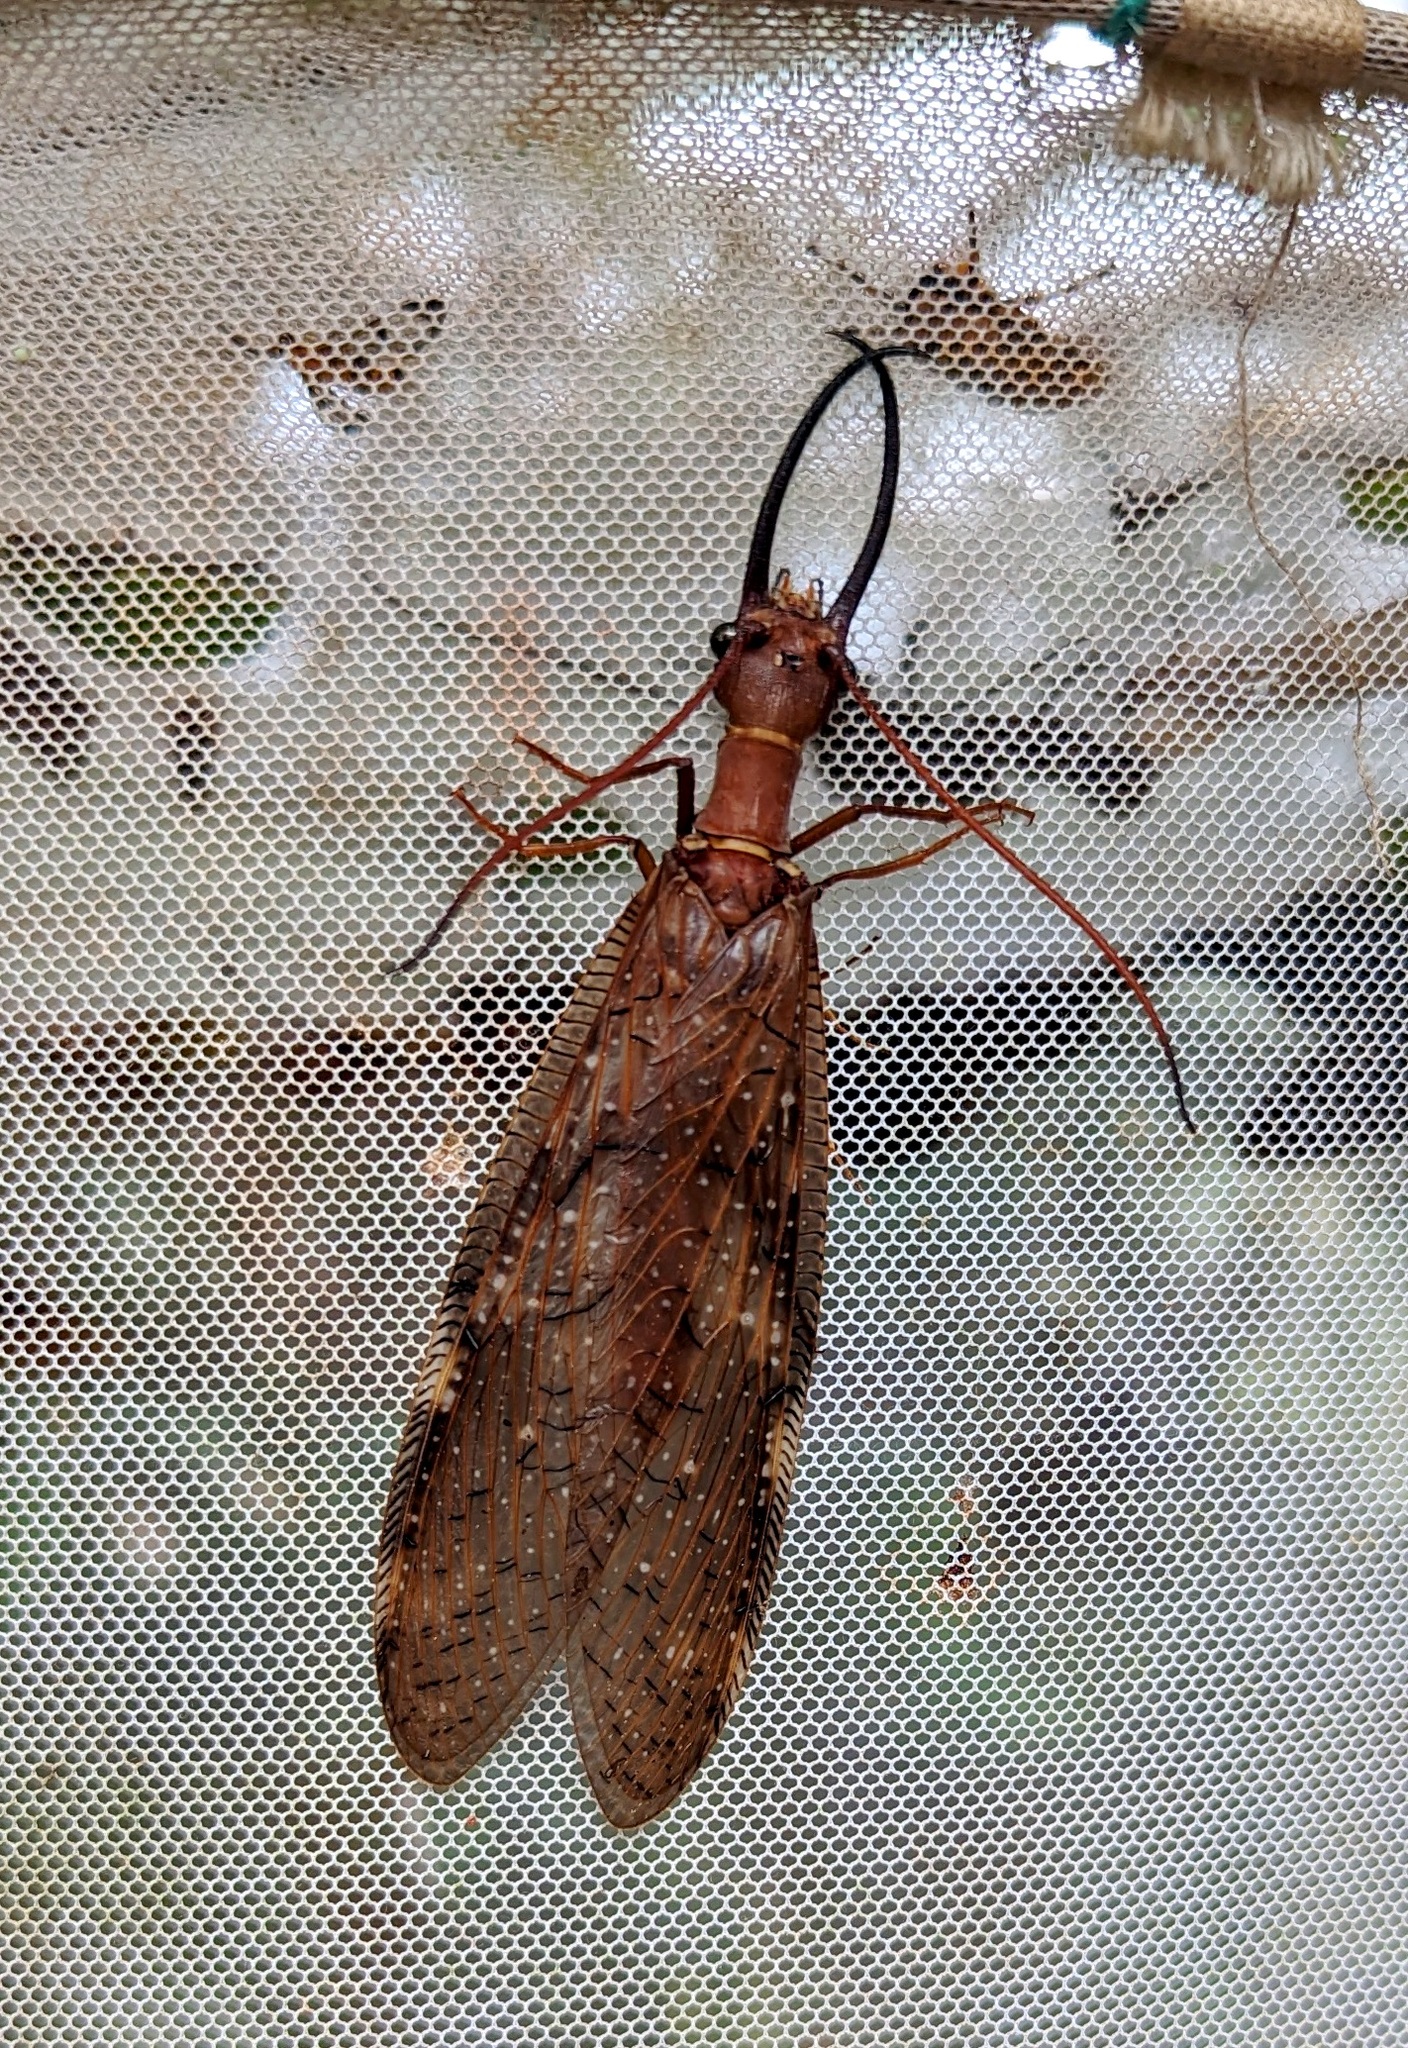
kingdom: Animalia
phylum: Arthropoda
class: Insecta
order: Megaloptera
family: Corydalidae
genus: Corydalus
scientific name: Corydalus armatus
